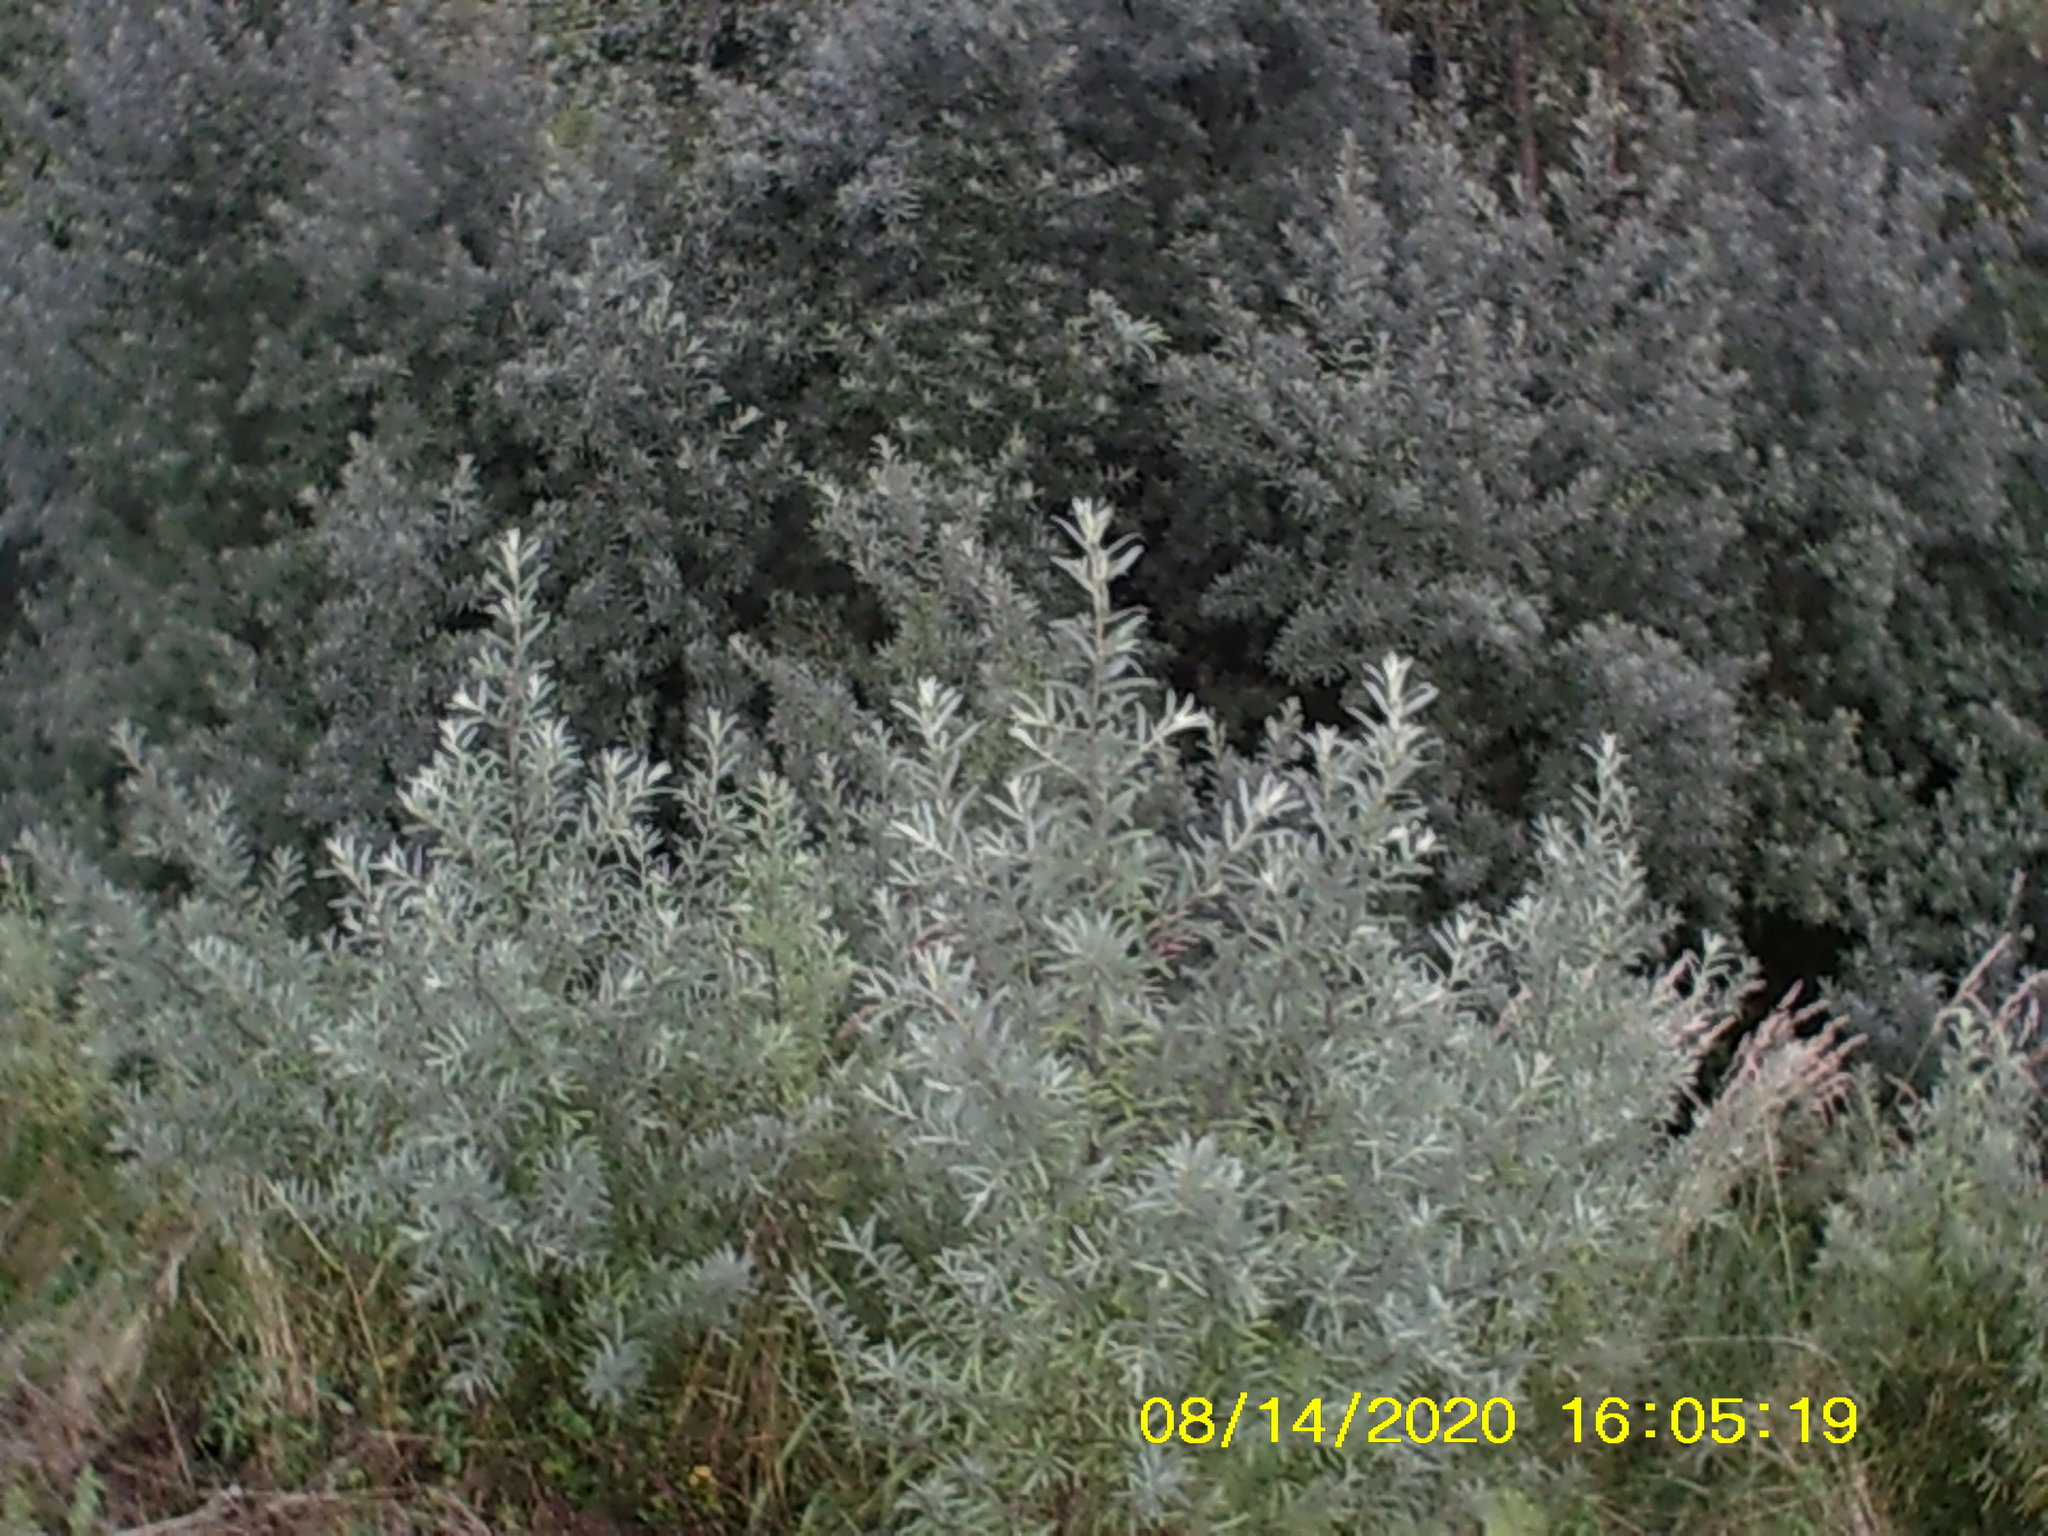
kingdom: Plantae
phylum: Tracheophyta
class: Magnoliopsida
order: Rosales
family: Elaeagnaceae
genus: Hippophae
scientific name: Hippophae rhamnoides
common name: Sea-buckthorn
